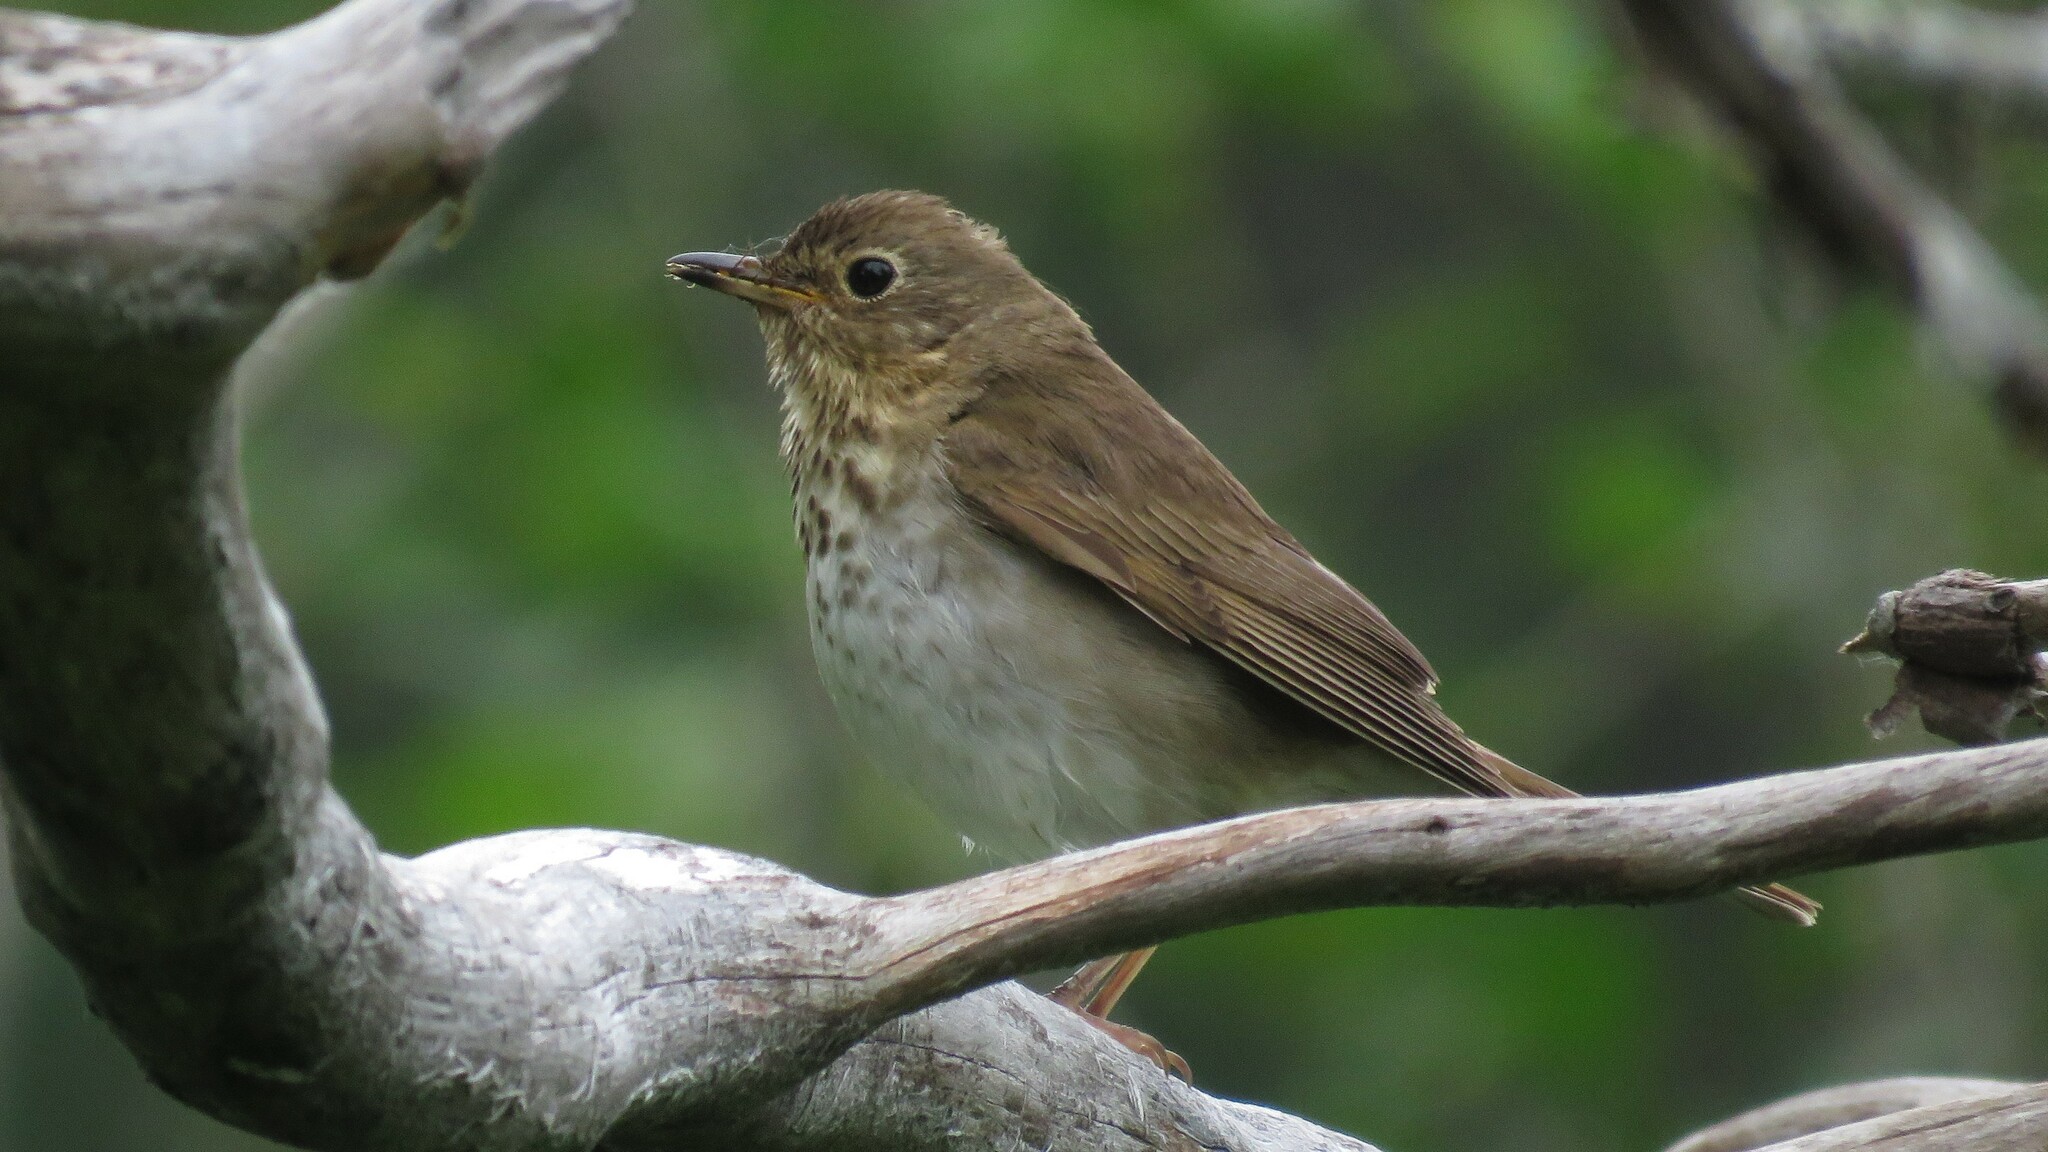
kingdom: Animalia
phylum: Chordata
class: Aves
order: Passeriformes
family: Turdidae
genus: Catharus
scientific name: Catharus ustulatus
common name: Swainson's thrush
